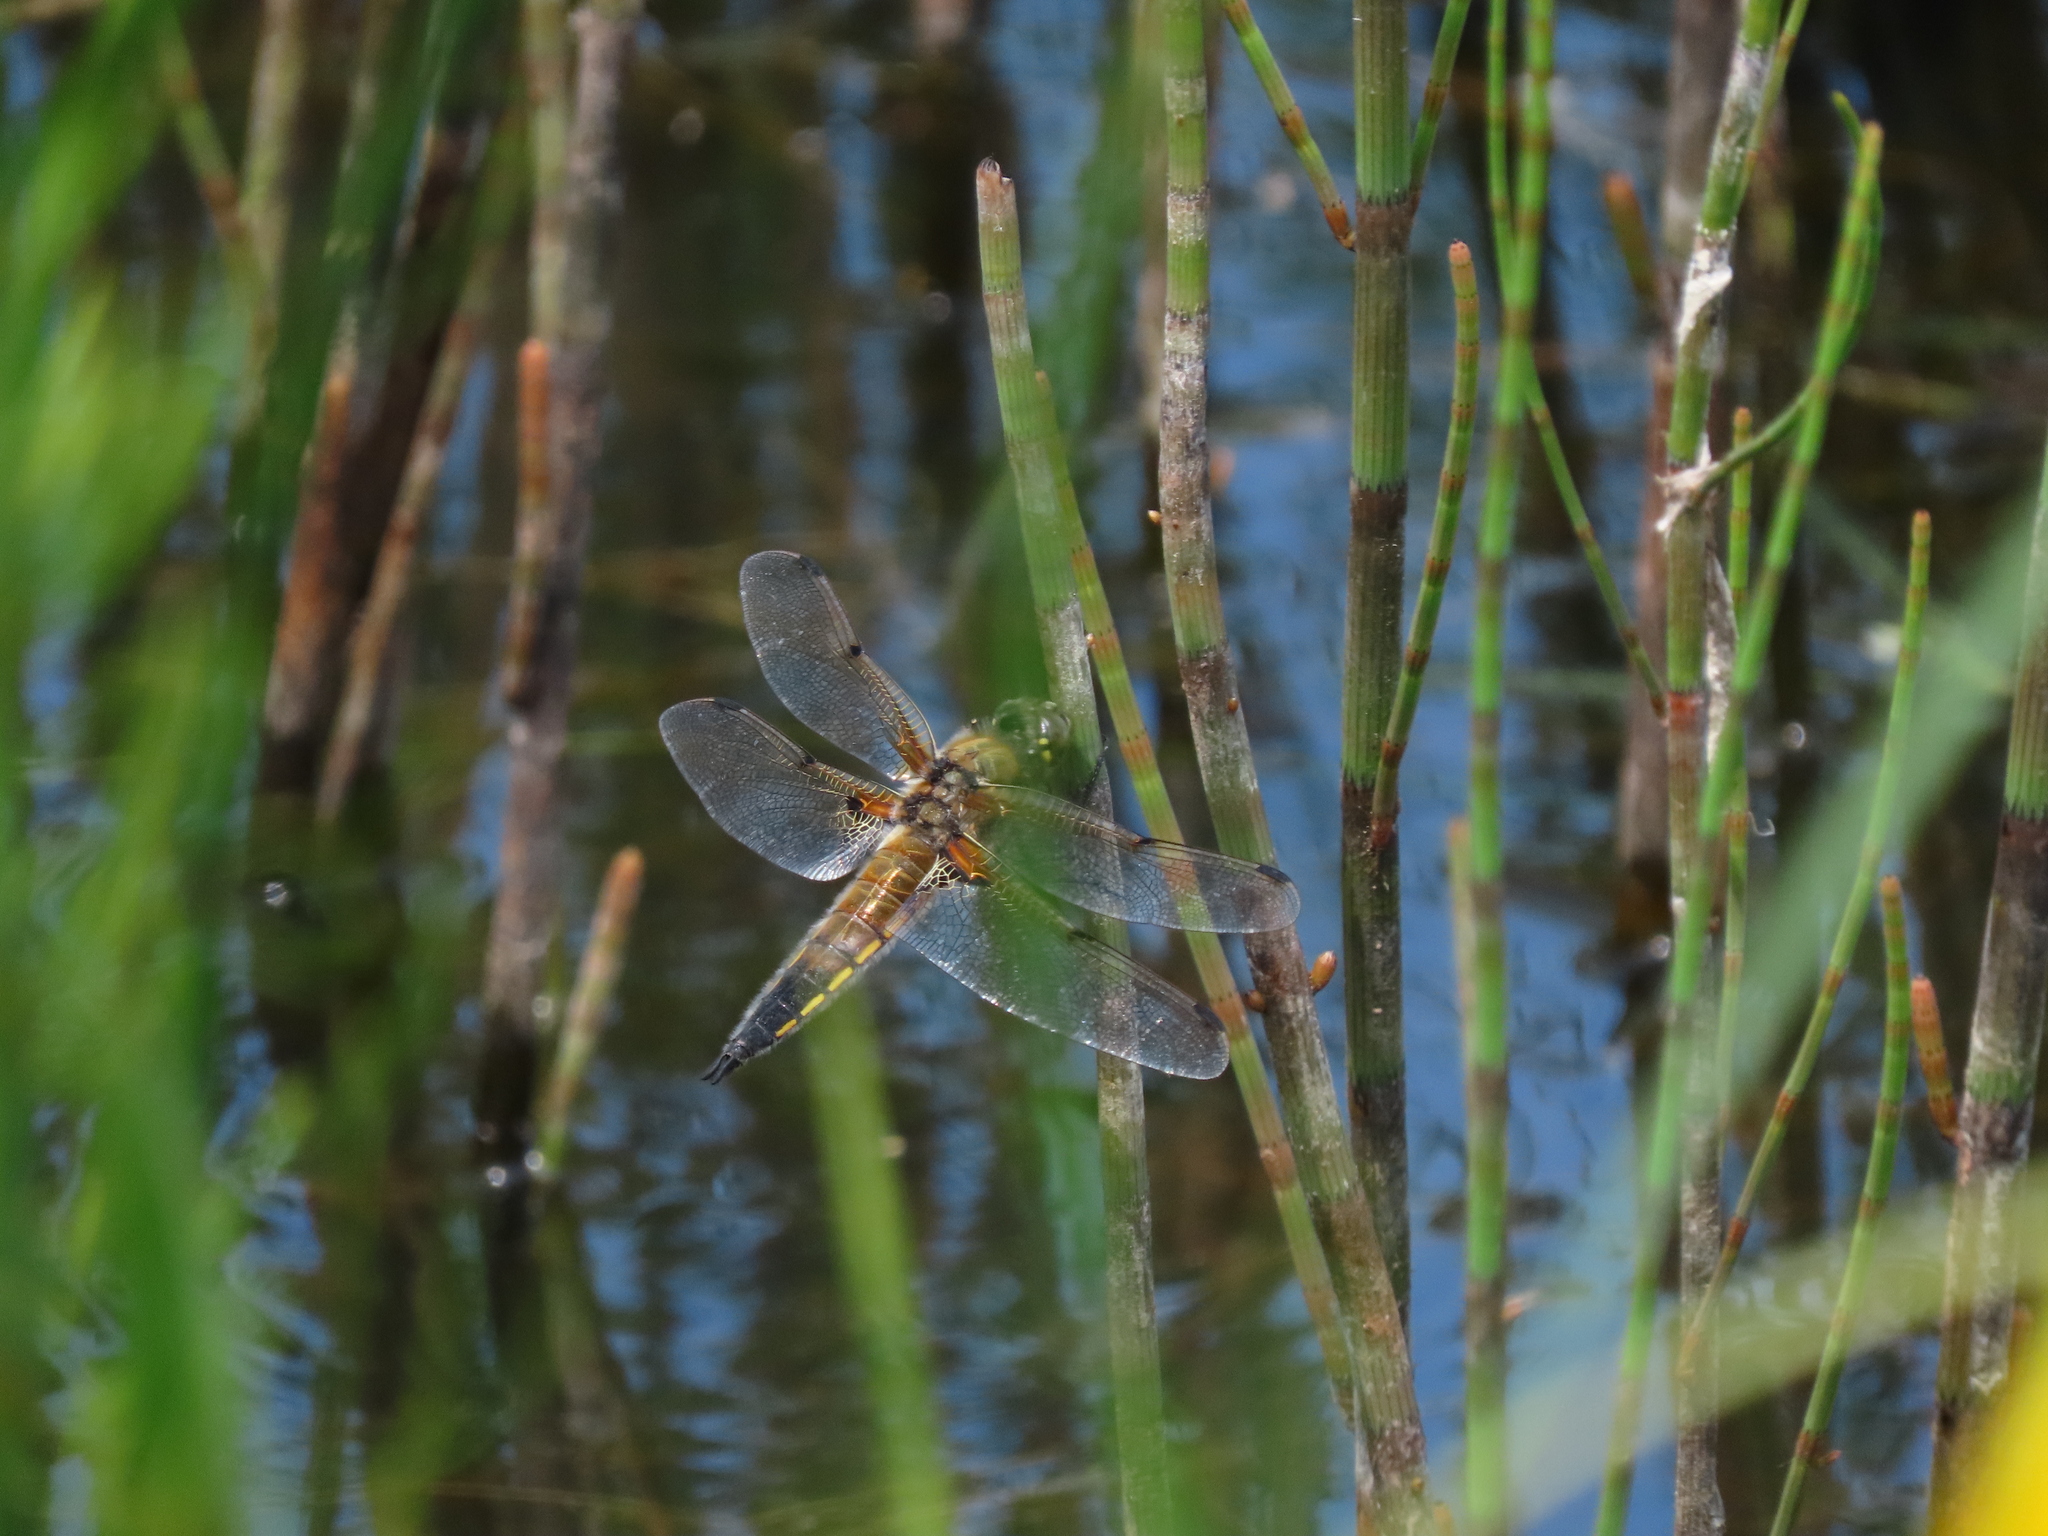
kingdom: Animalia
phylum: Arthropoda
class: Insecta
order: Odonata
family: Libellulidae
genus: Libellula
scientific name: Libellula quadrimaculata
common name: Four-spotted chaser
